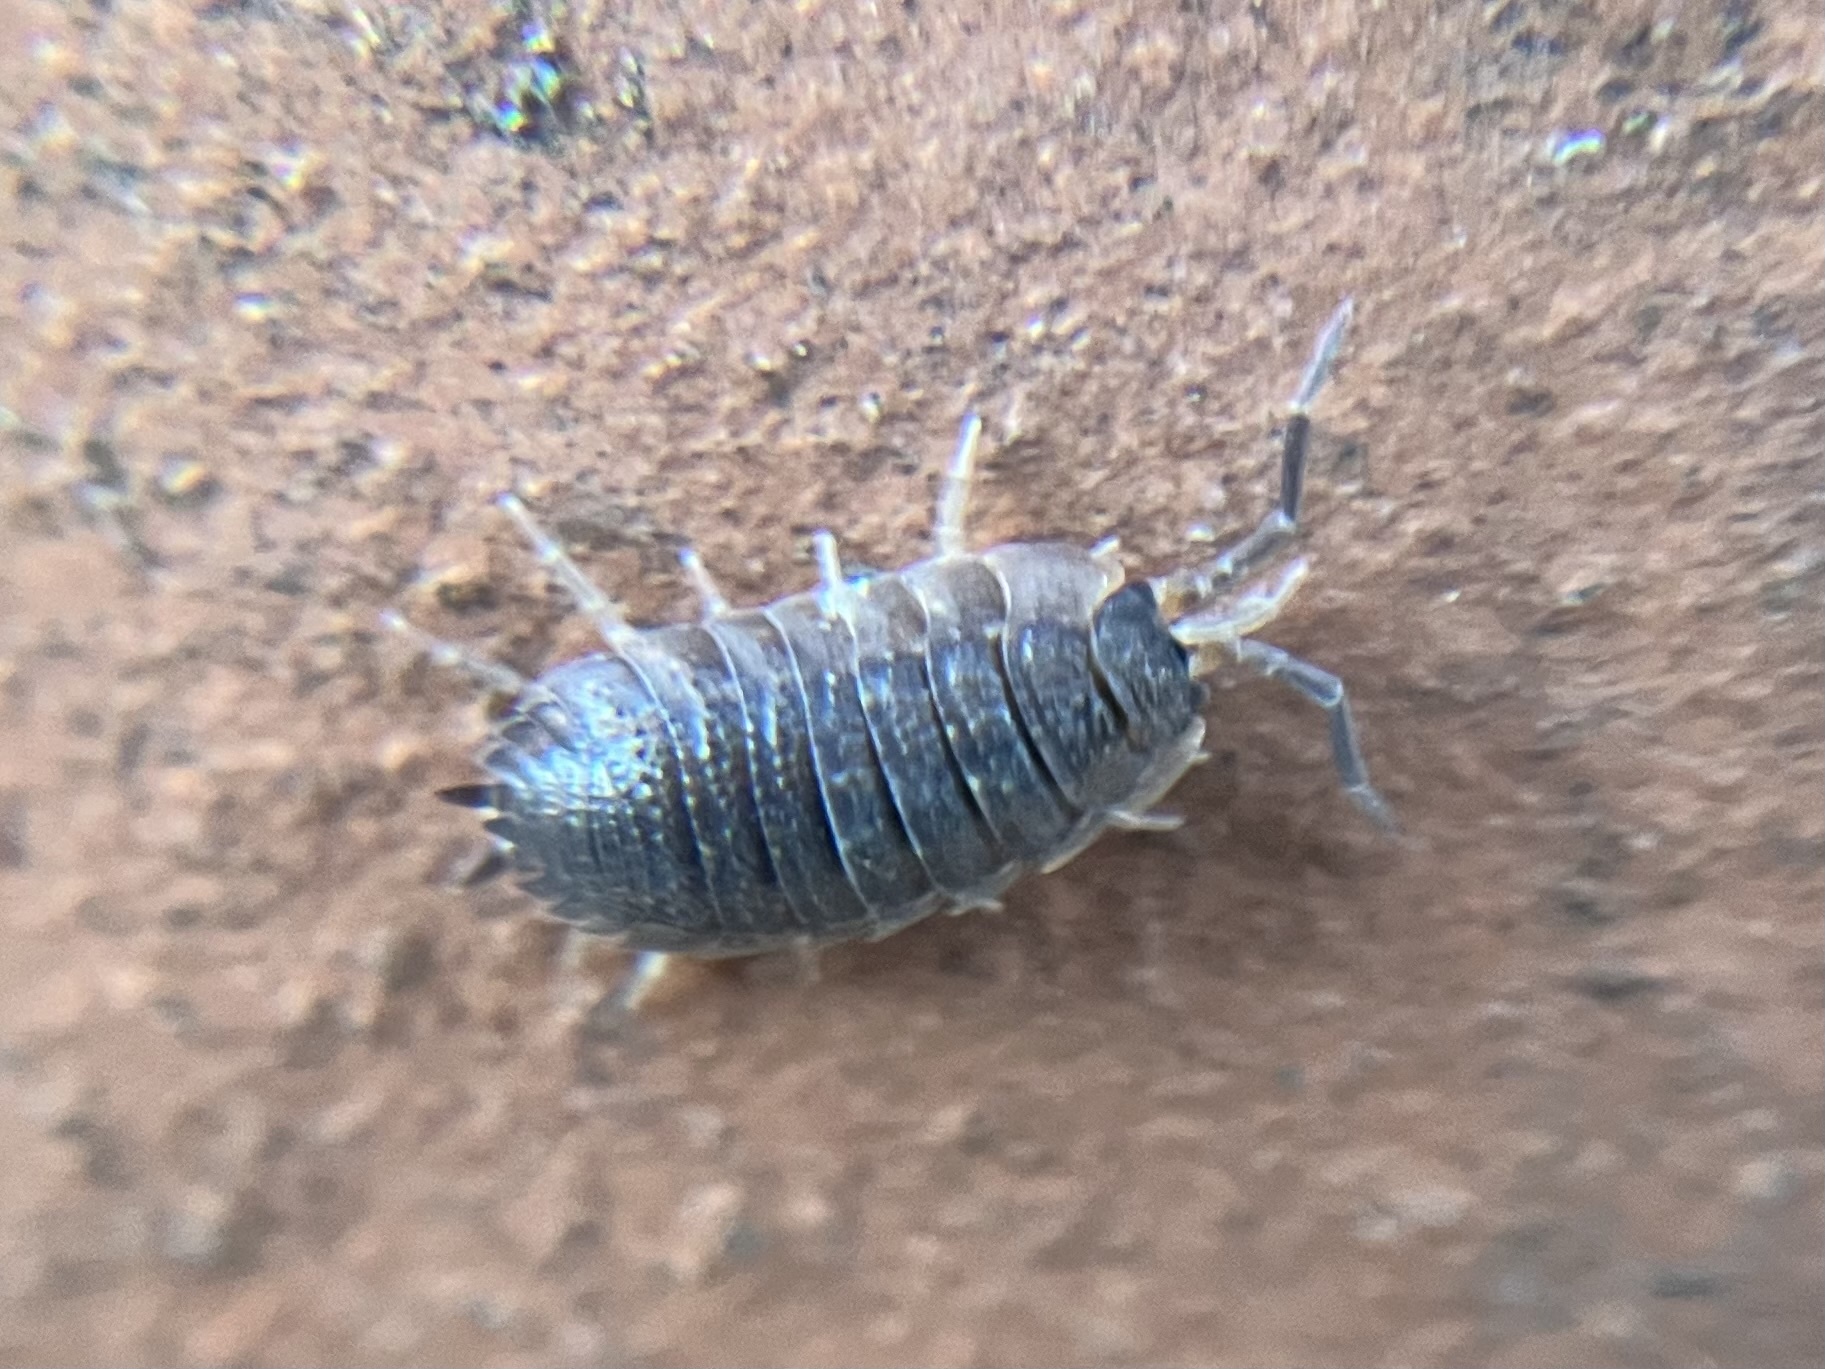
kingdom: Animalia
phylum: Arthropoda
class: Malacostraca
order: Isopoda
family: Porcellionidae
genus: Porcellio
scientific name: Porcellio scaber
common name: Common rough woodlouse
